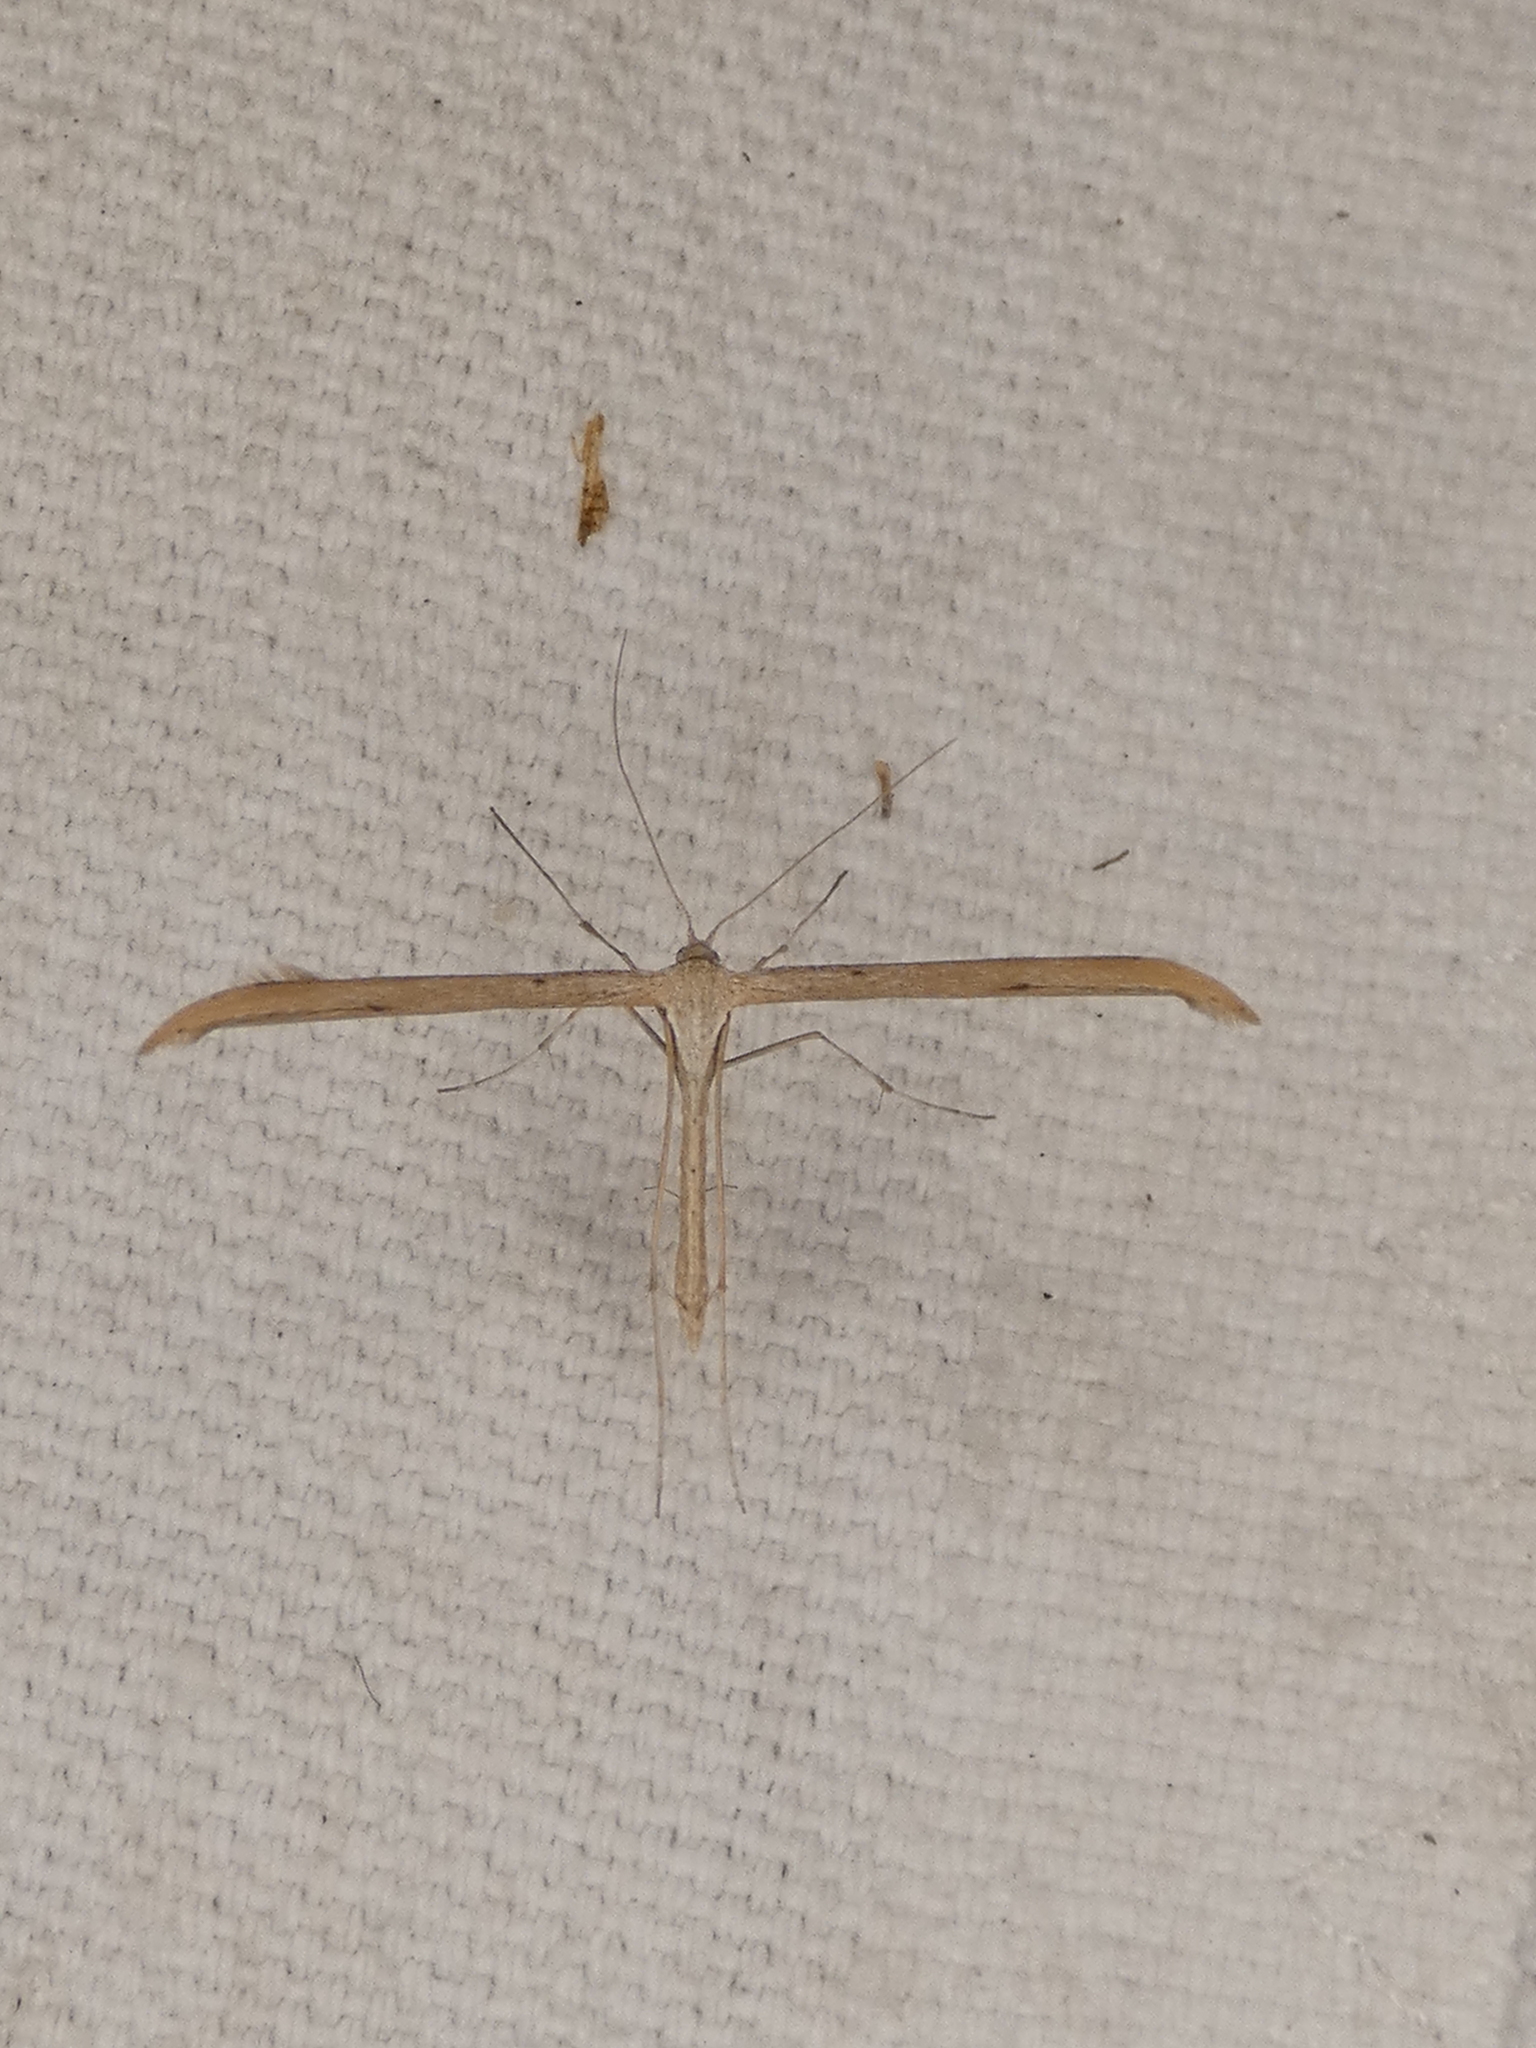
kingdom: Animalia
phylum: Arthropoda
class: Insecta
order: Lepidoptera
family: Pterophoridae
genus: Emmelina
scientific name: Emmelina monodactyla
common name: Common plume
